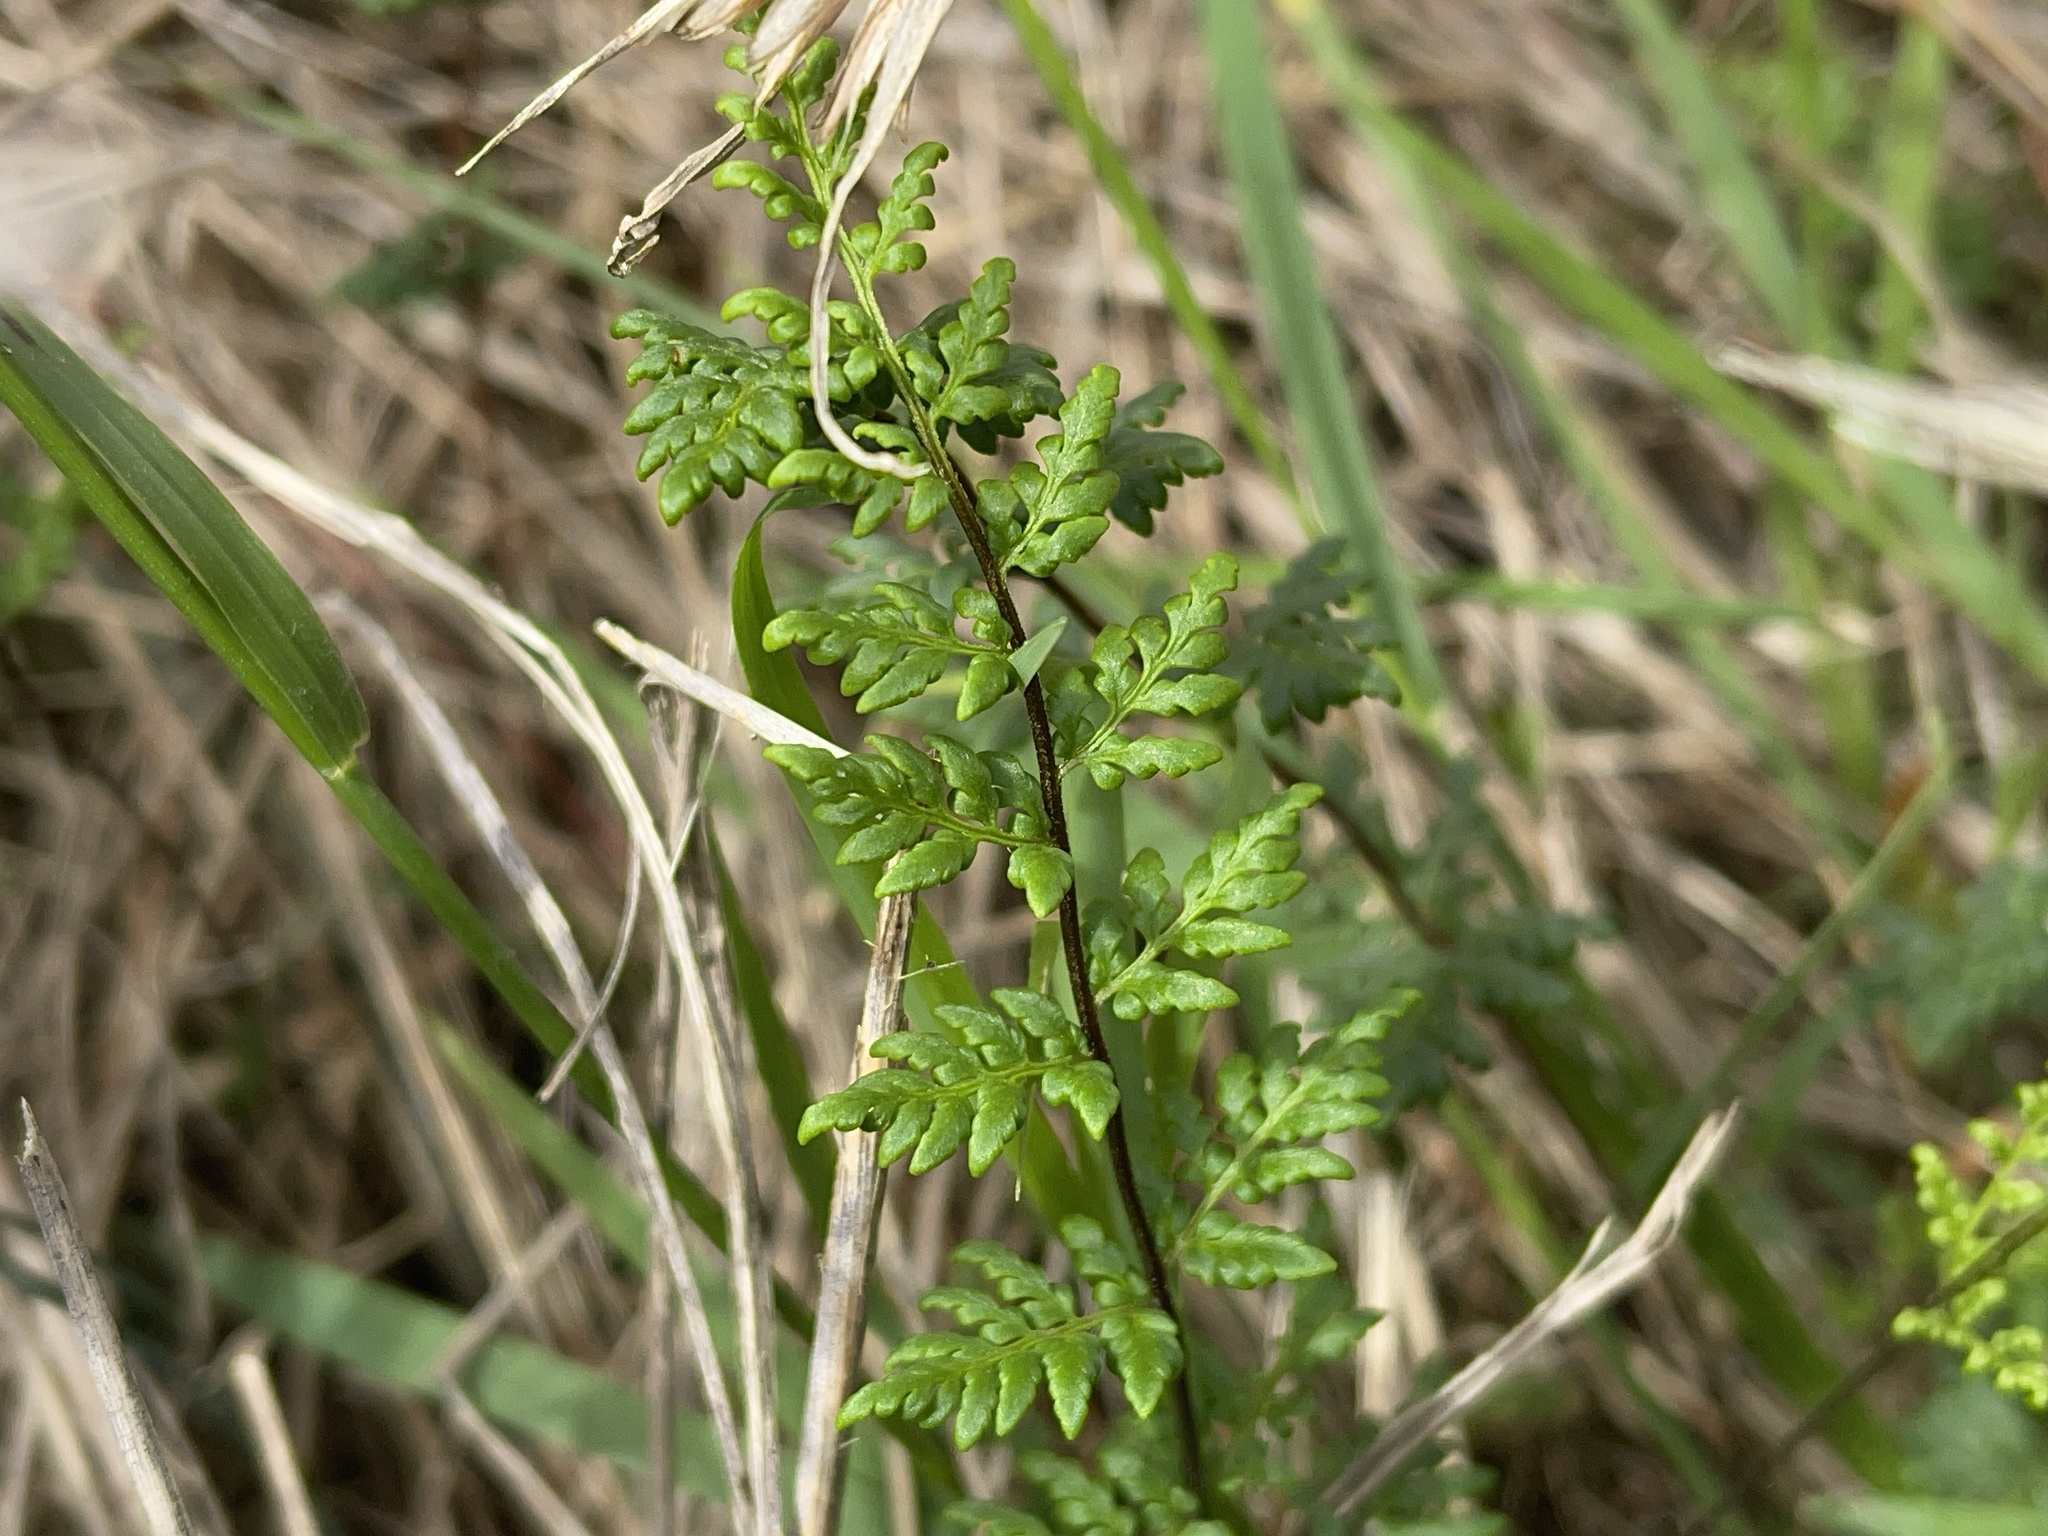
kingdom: Plantae
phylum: Tracheophyta
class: Polypodiopsida
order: Polypodiales
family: Pteridaceae
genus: Cheilanthes
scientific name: Cheilanthes sieberi
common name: Mulga fern
